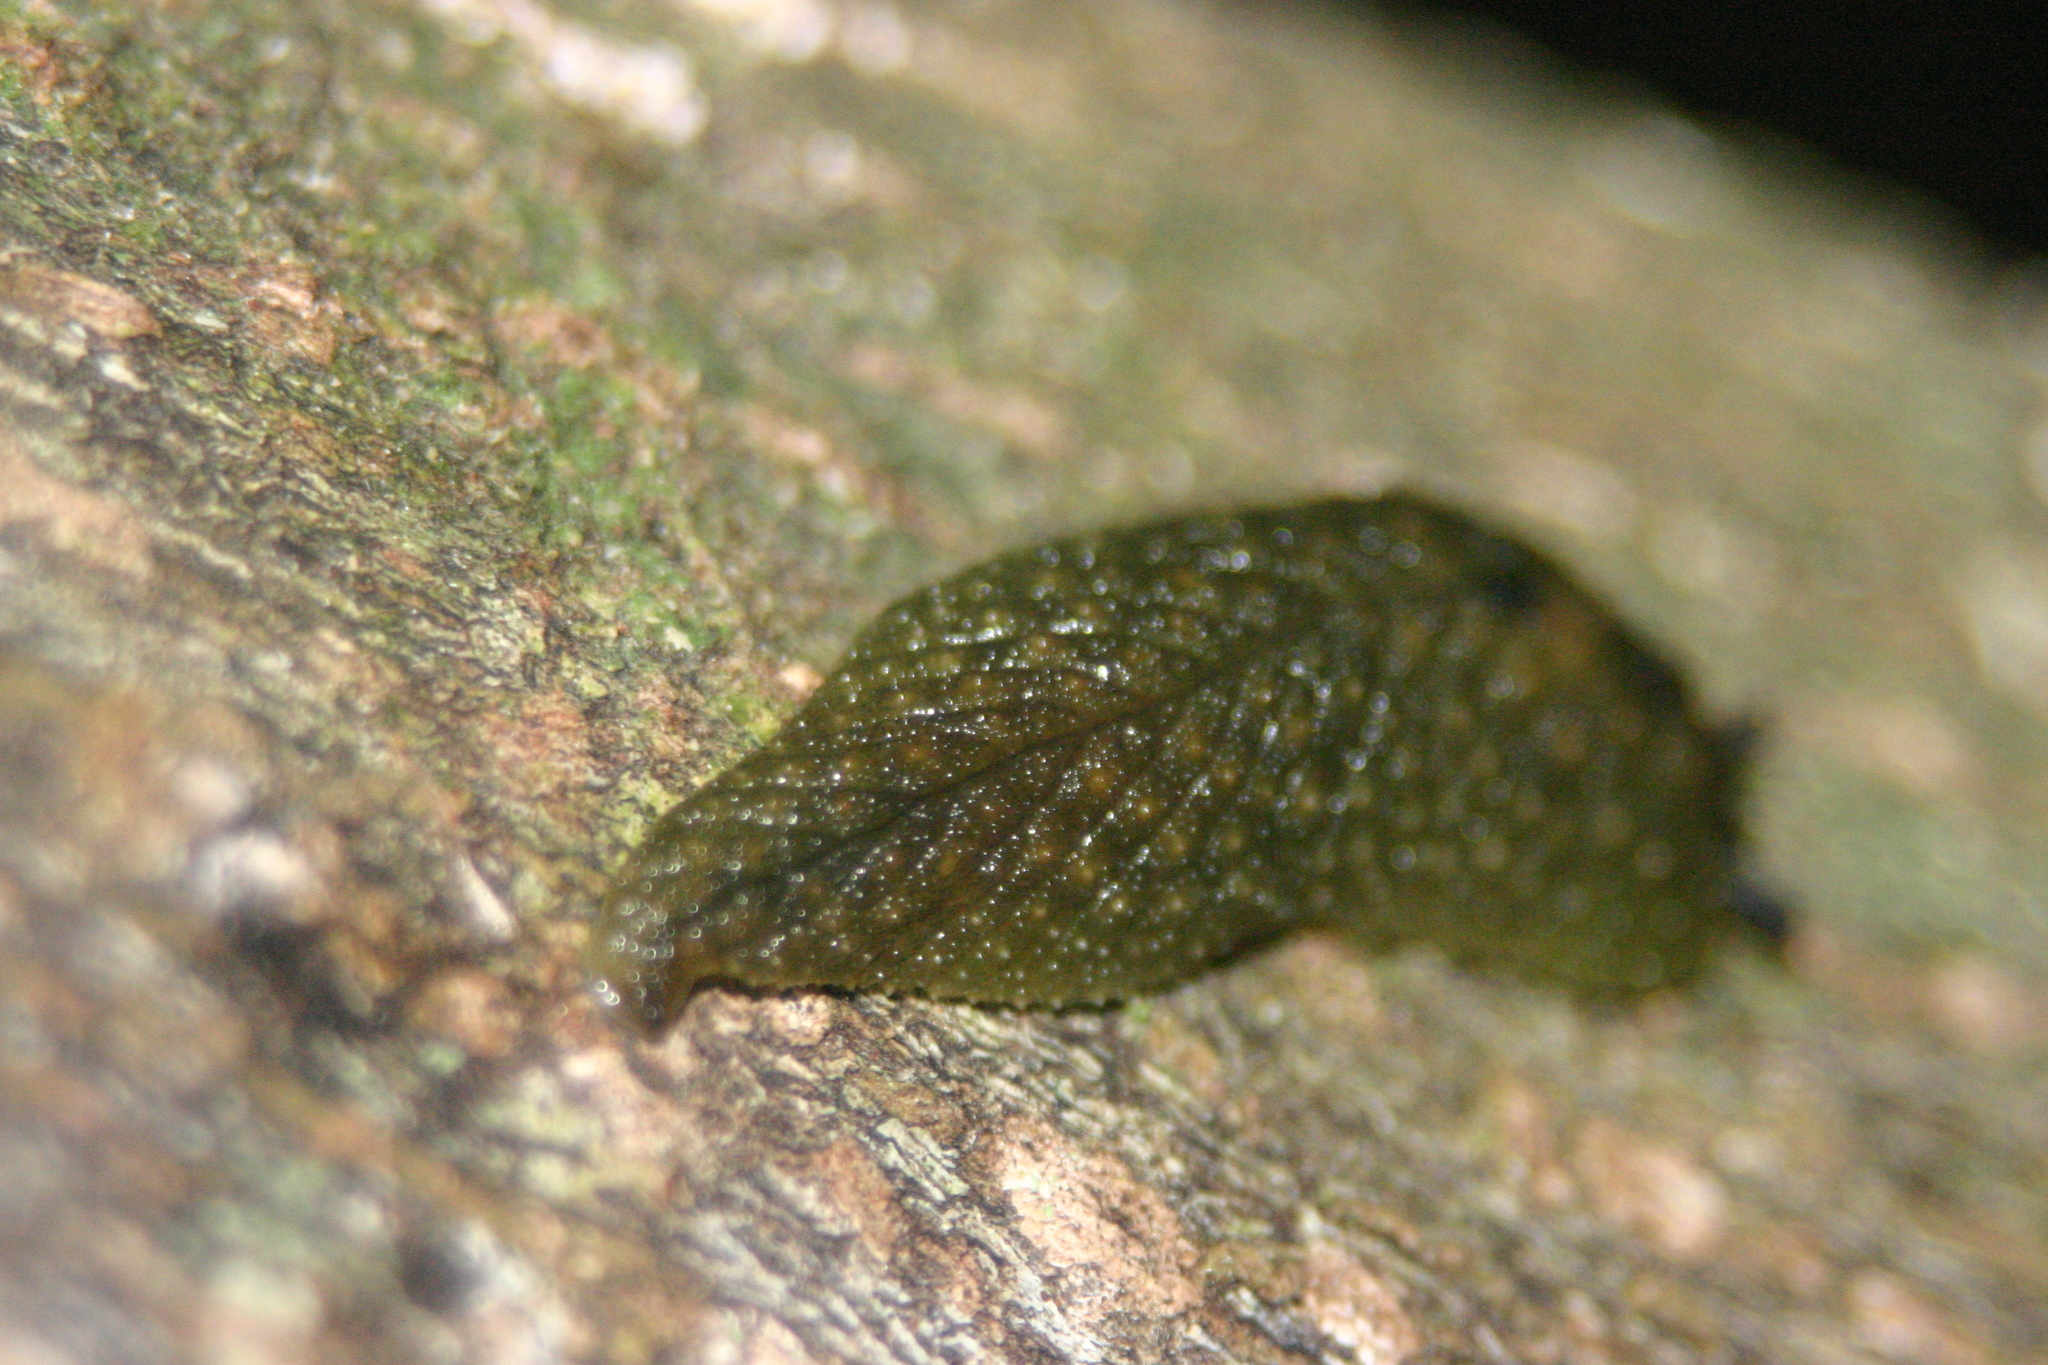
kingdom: Animalia
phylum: Mollusca
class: Gastropoda
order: Stylommatophora
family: Athoracophoridae
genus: Athoracophorus
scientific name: Athoracophorus papillatus
